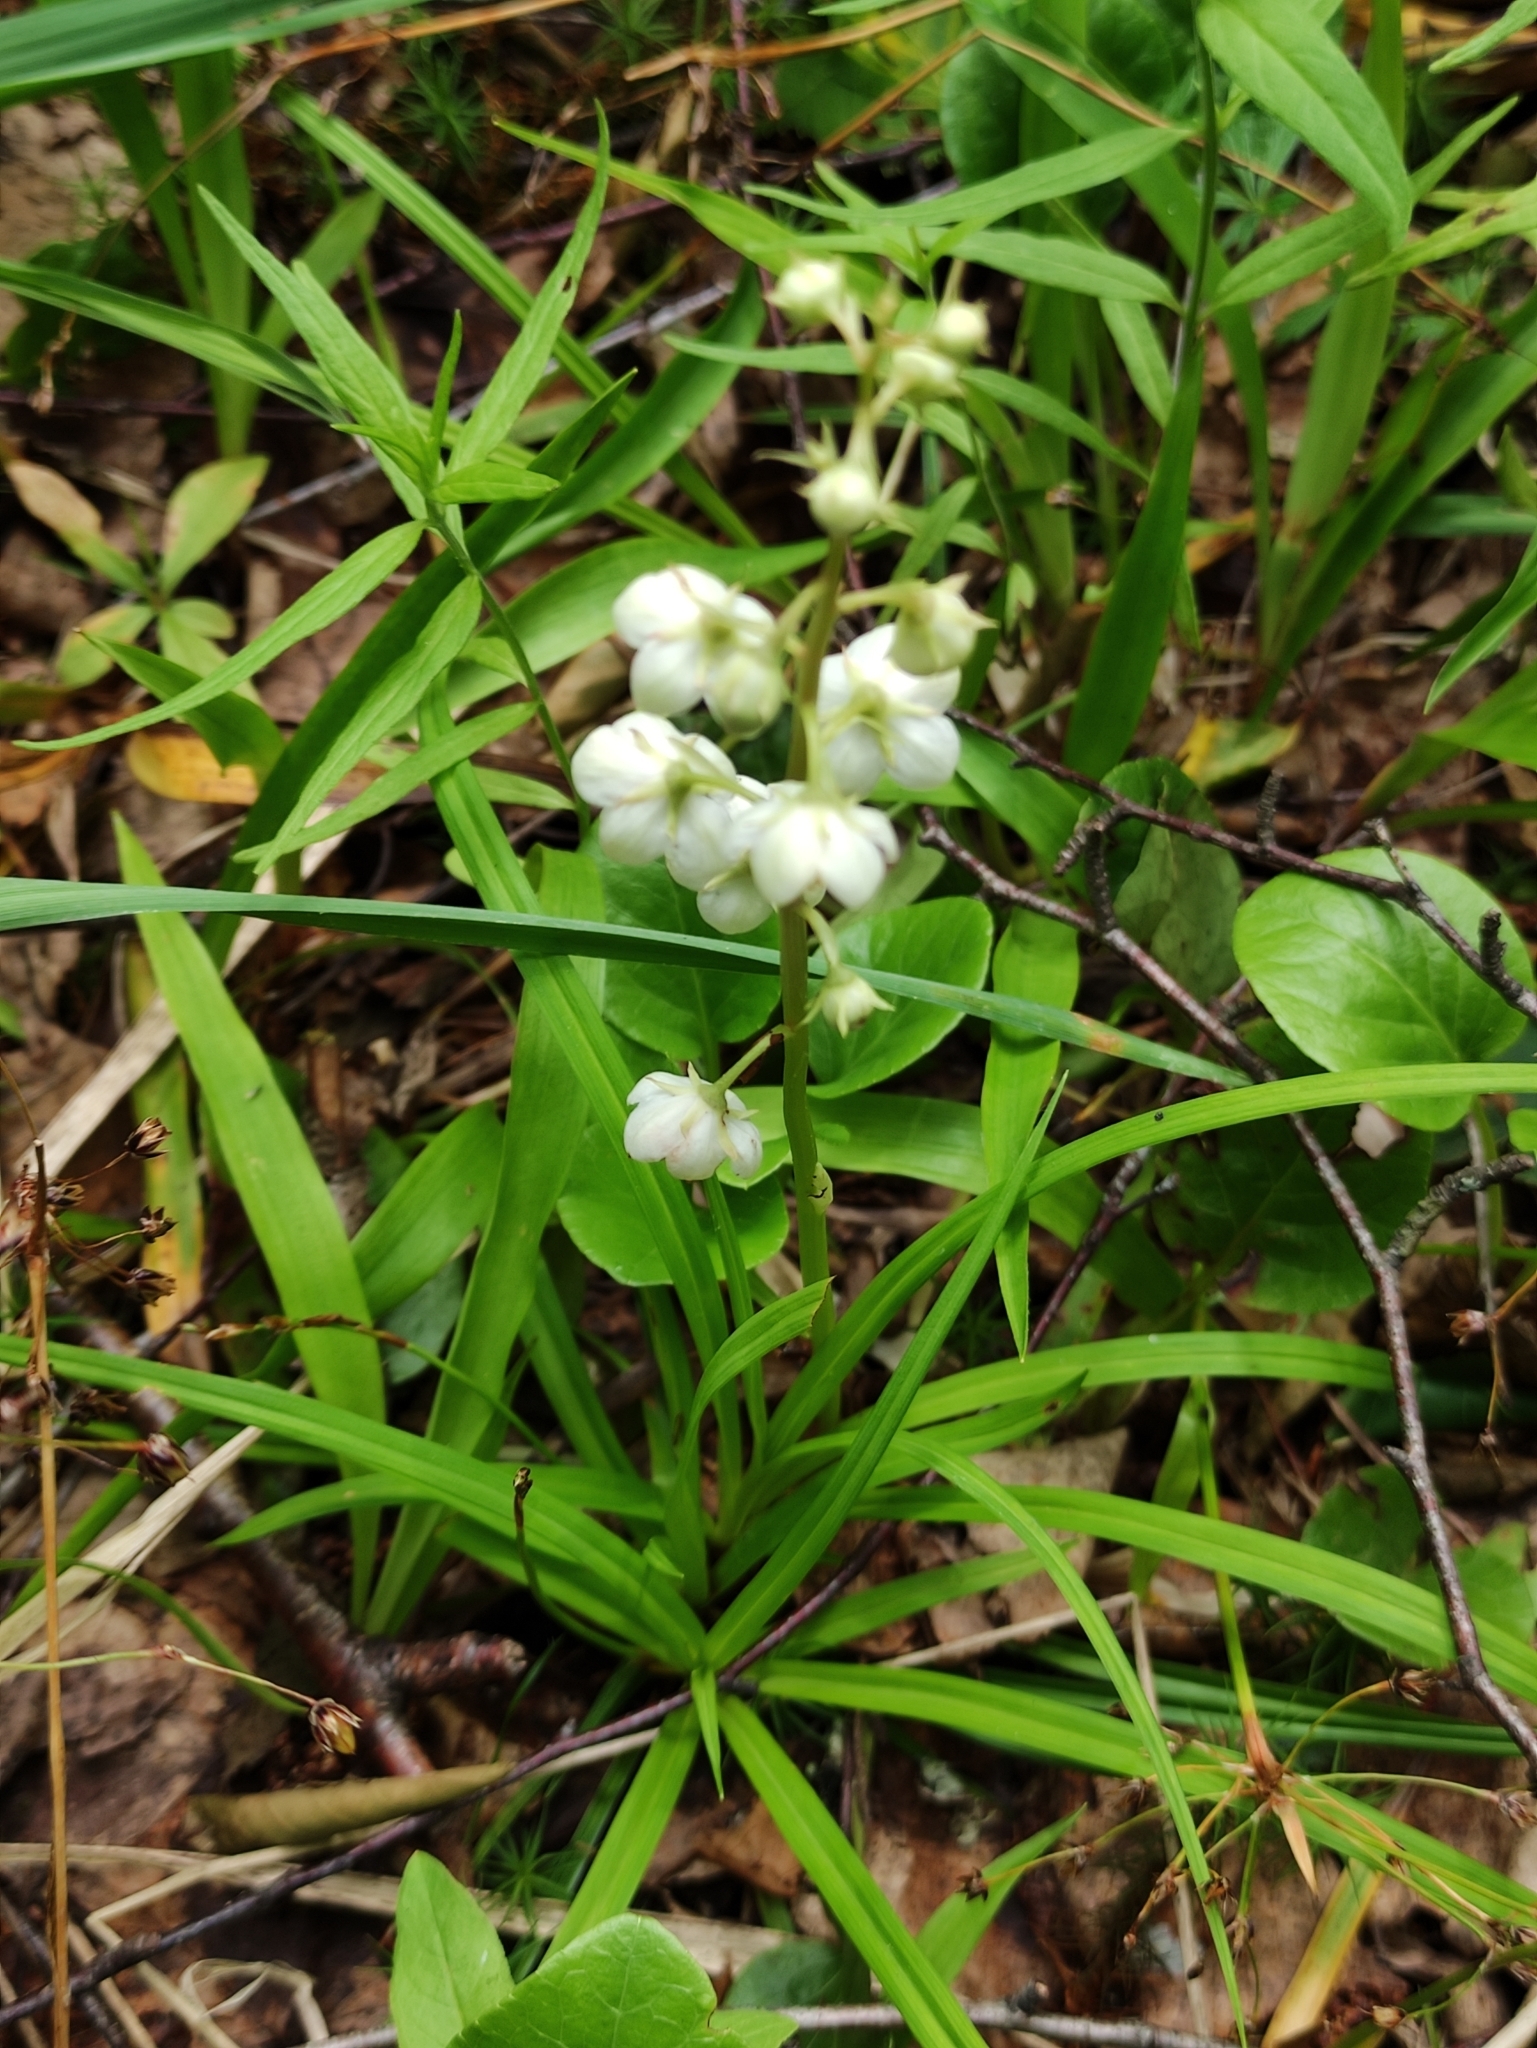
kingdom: Plantae
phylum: Tracheophyta
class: Magnoliopsida
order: Ericales
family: Ericaceae
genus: Pyrola
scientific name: Pyrola rotundifolia
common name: Round-leaved wintergreen
